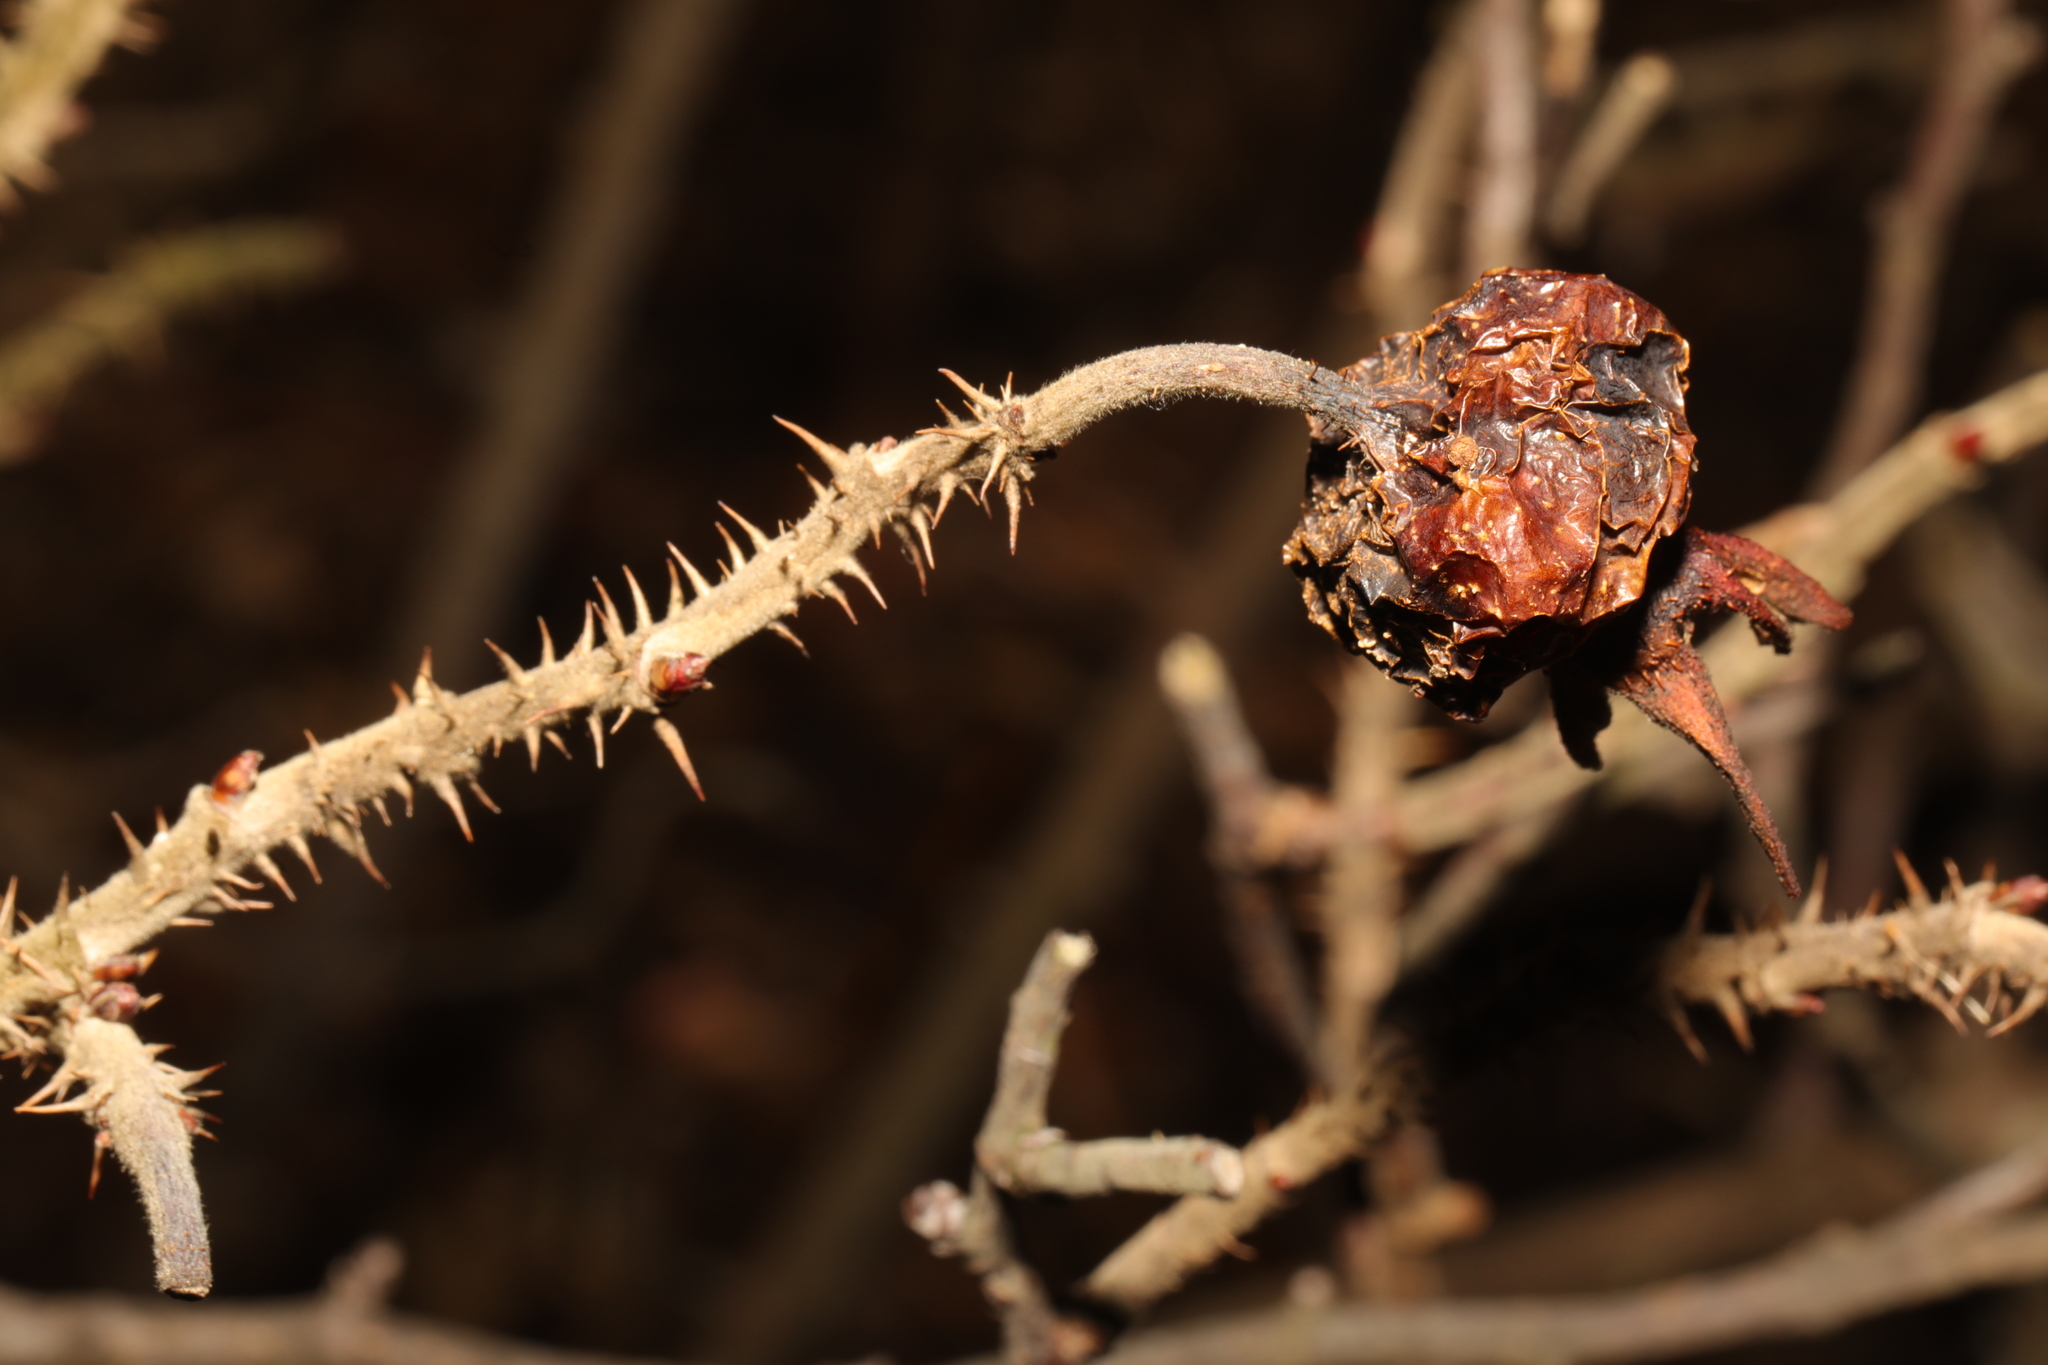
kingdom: Plantae
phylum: Tracheophyta
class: Magnoliopsida
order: Rosales
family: Rosaceae
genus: Rosa
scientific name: Rosa rugosa
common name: Japanese rose
